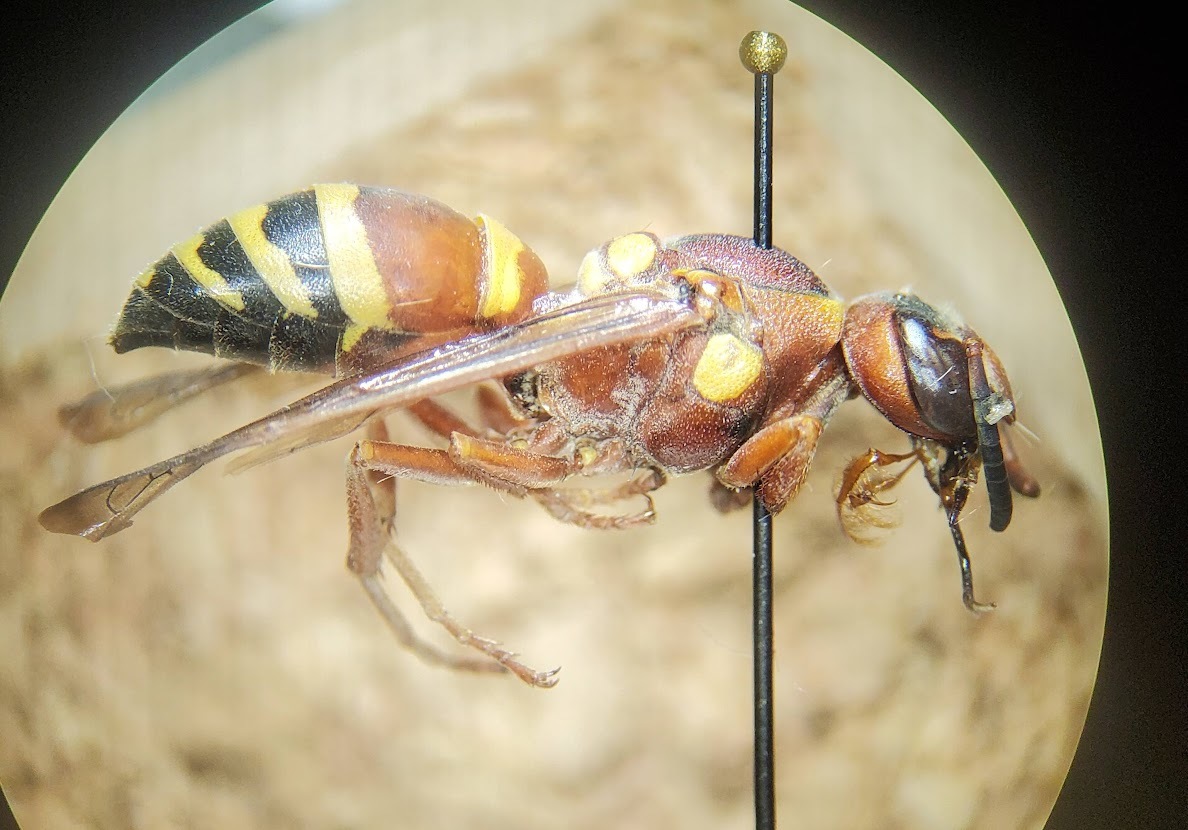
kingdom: Animalia
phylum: Arthropoda
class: Insecta
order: Hymenoptera
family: Eumenidae
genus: Pterocheilus
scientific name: Pterocheilus quinquefasciatus
